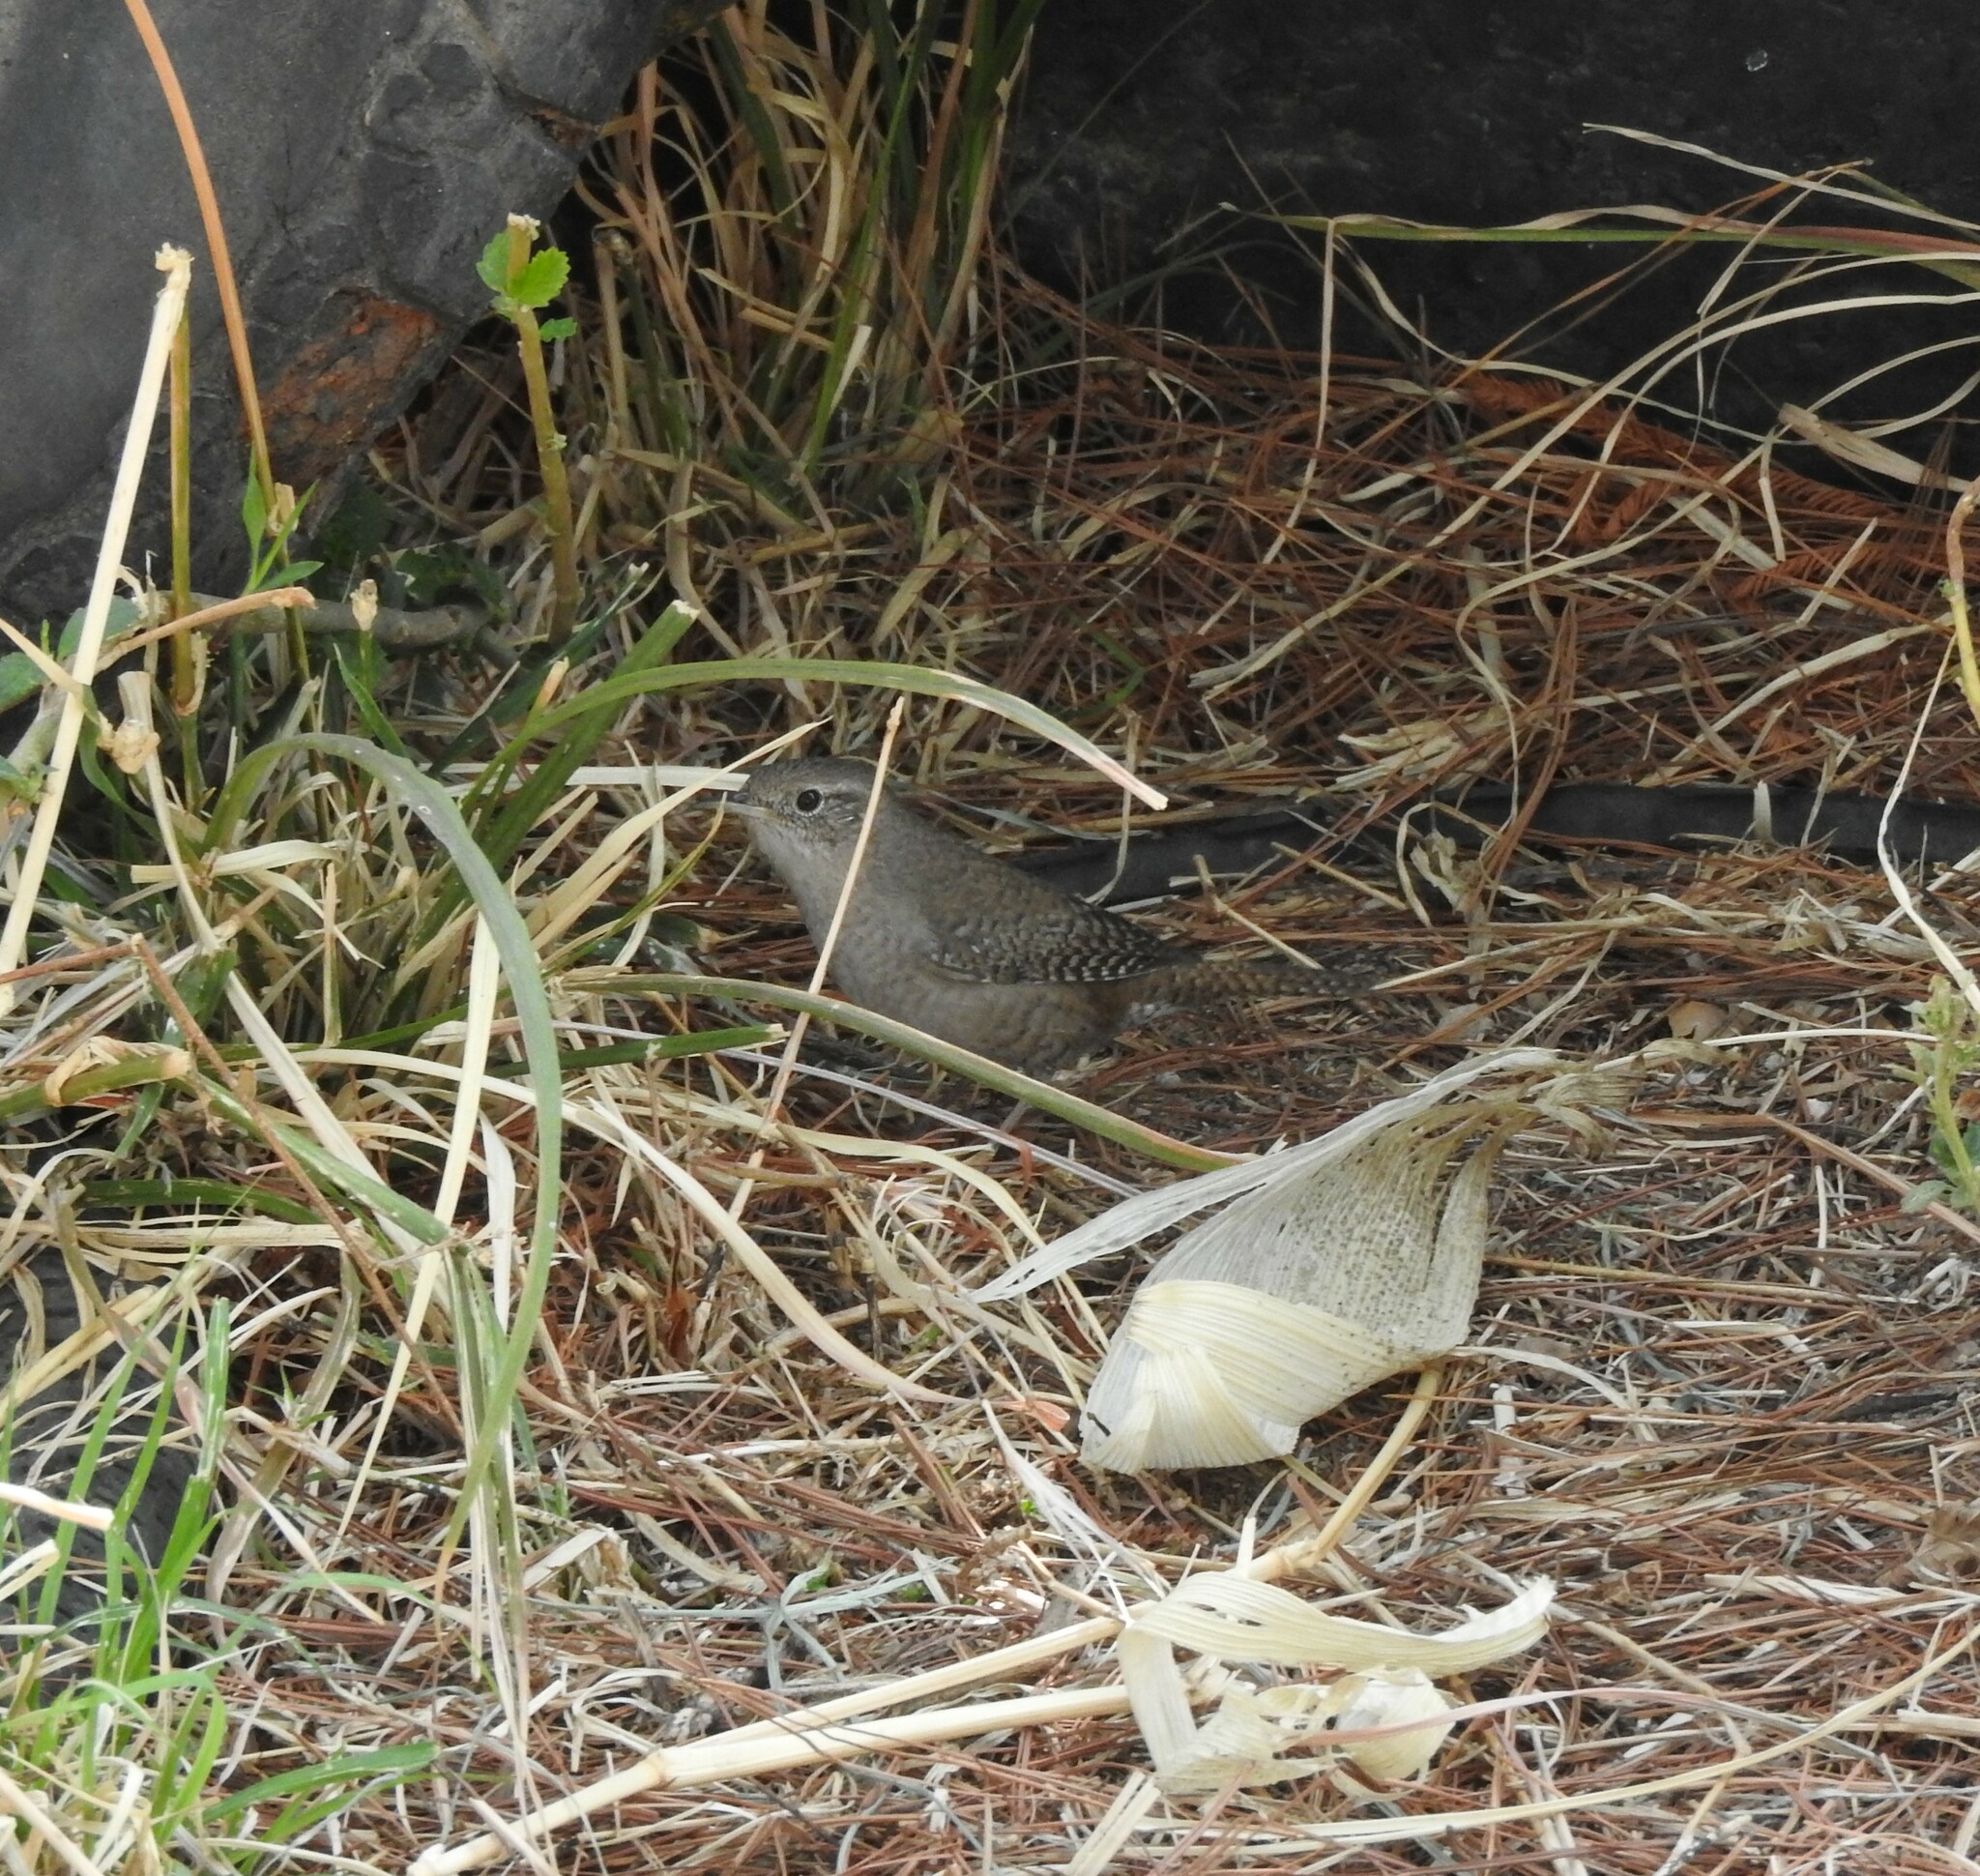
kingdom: Animalia
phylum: Chordata
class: Aves
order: Passeriformes
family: Troglodytidae
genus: Troglodytes
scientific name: Troglodytes aedon
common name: House wren
